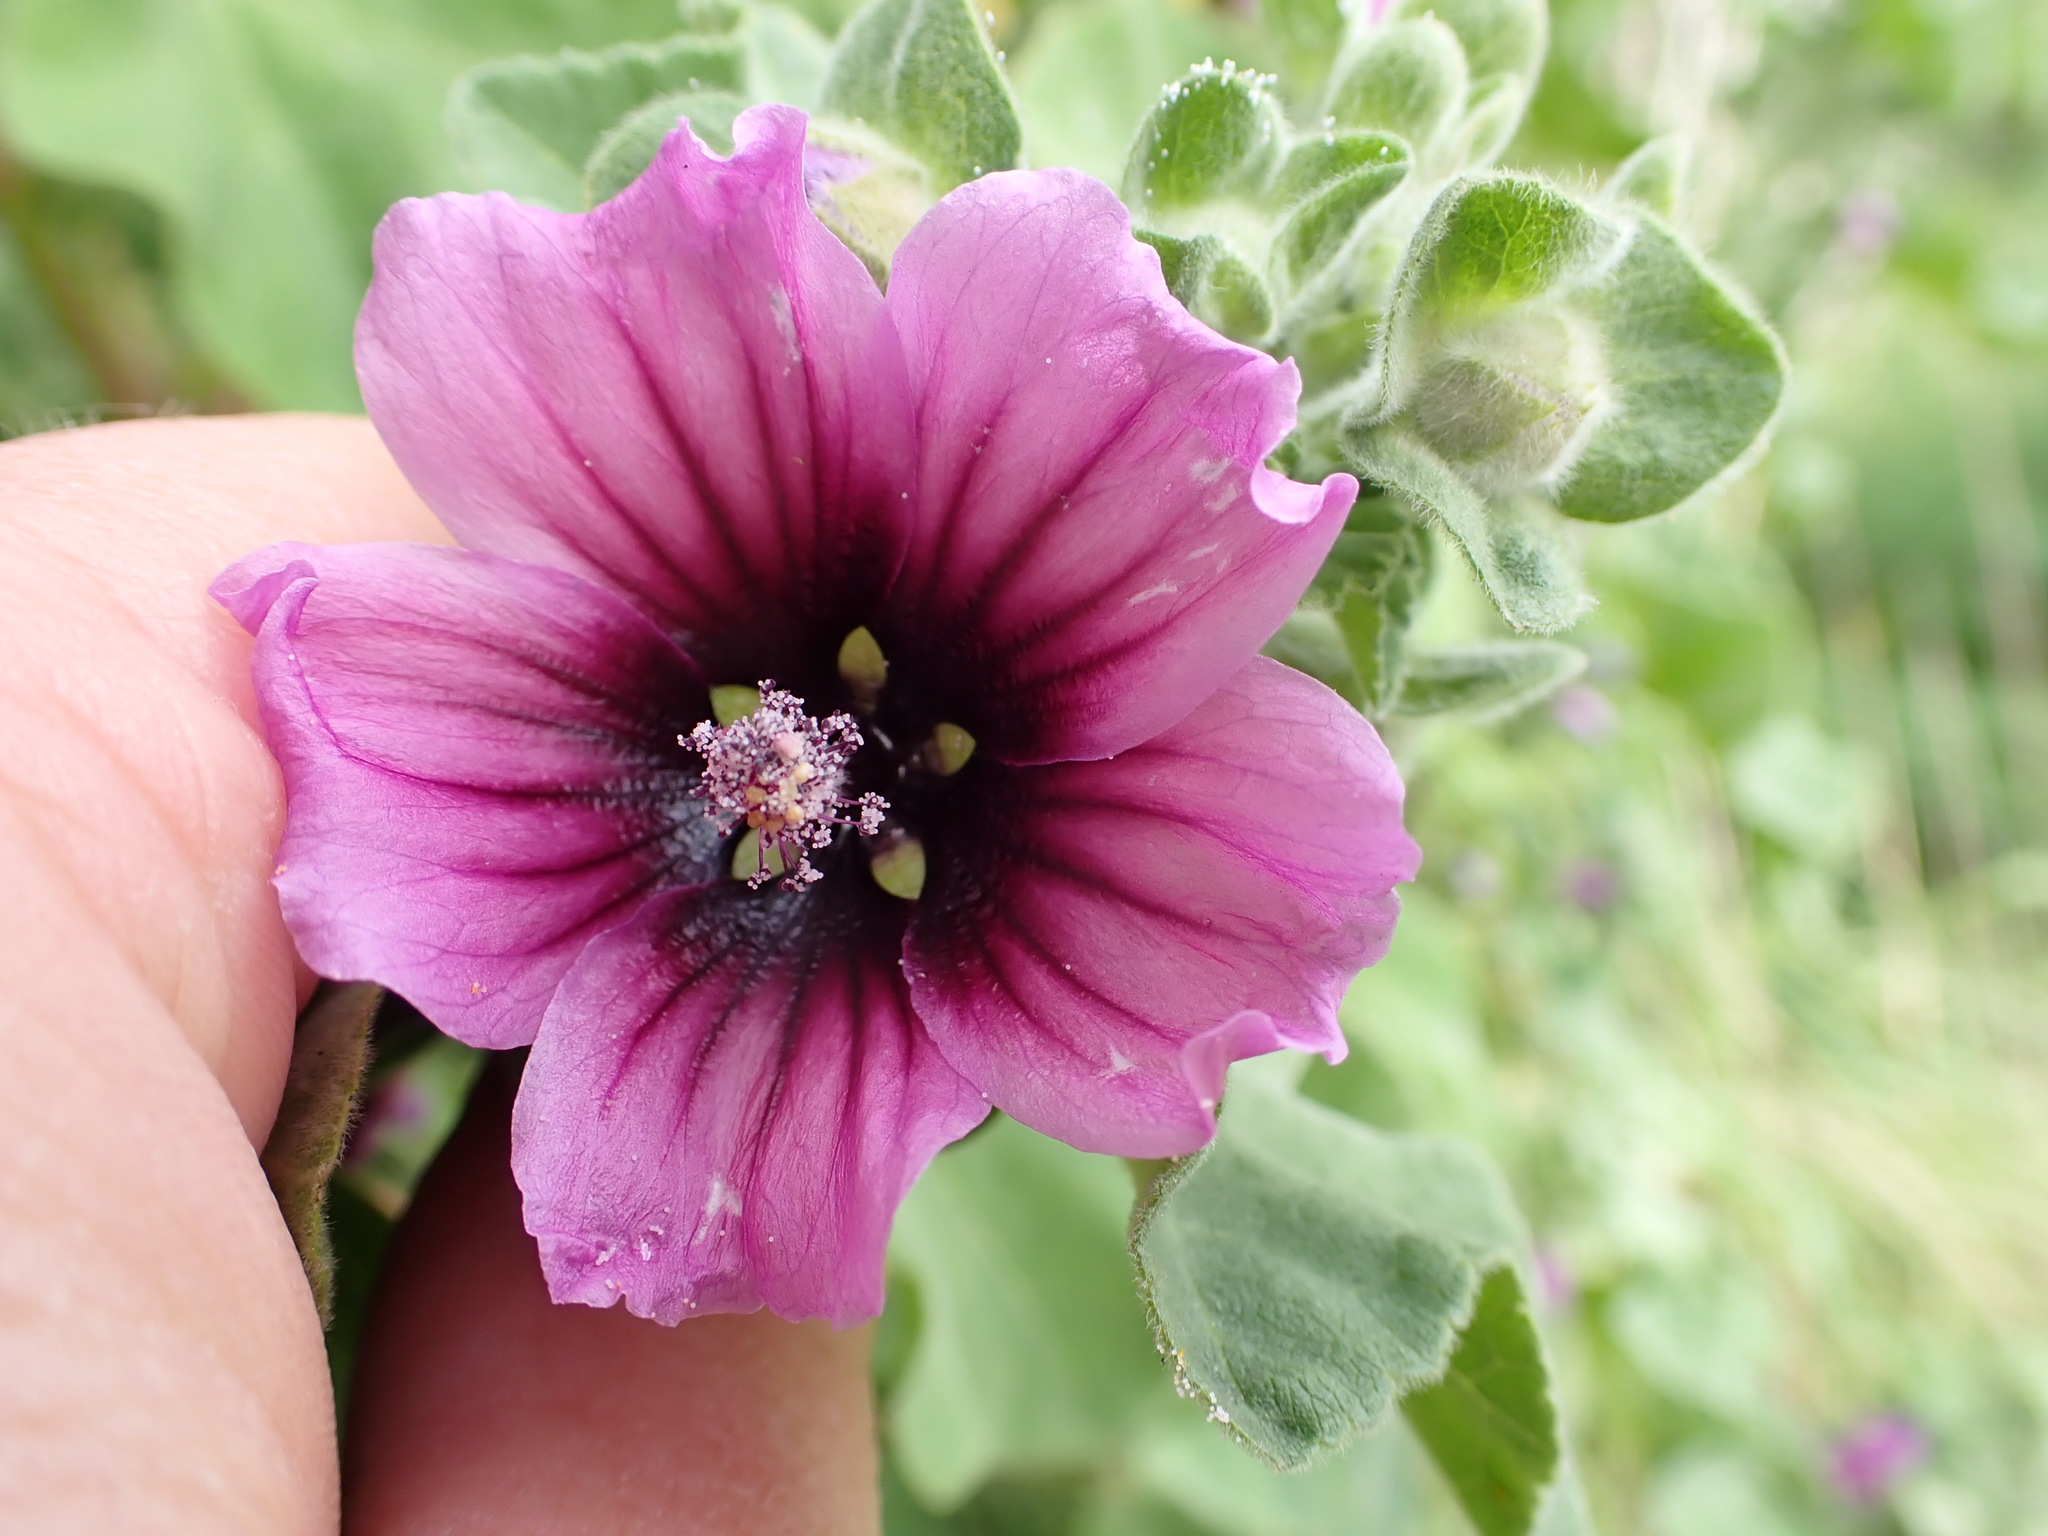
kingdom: Plantae
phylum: Tracheophyta
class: Magnoliopsida
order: Malvales
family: Malvaceae
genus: Malva
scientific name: Malva arborea
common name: Tree mallow
